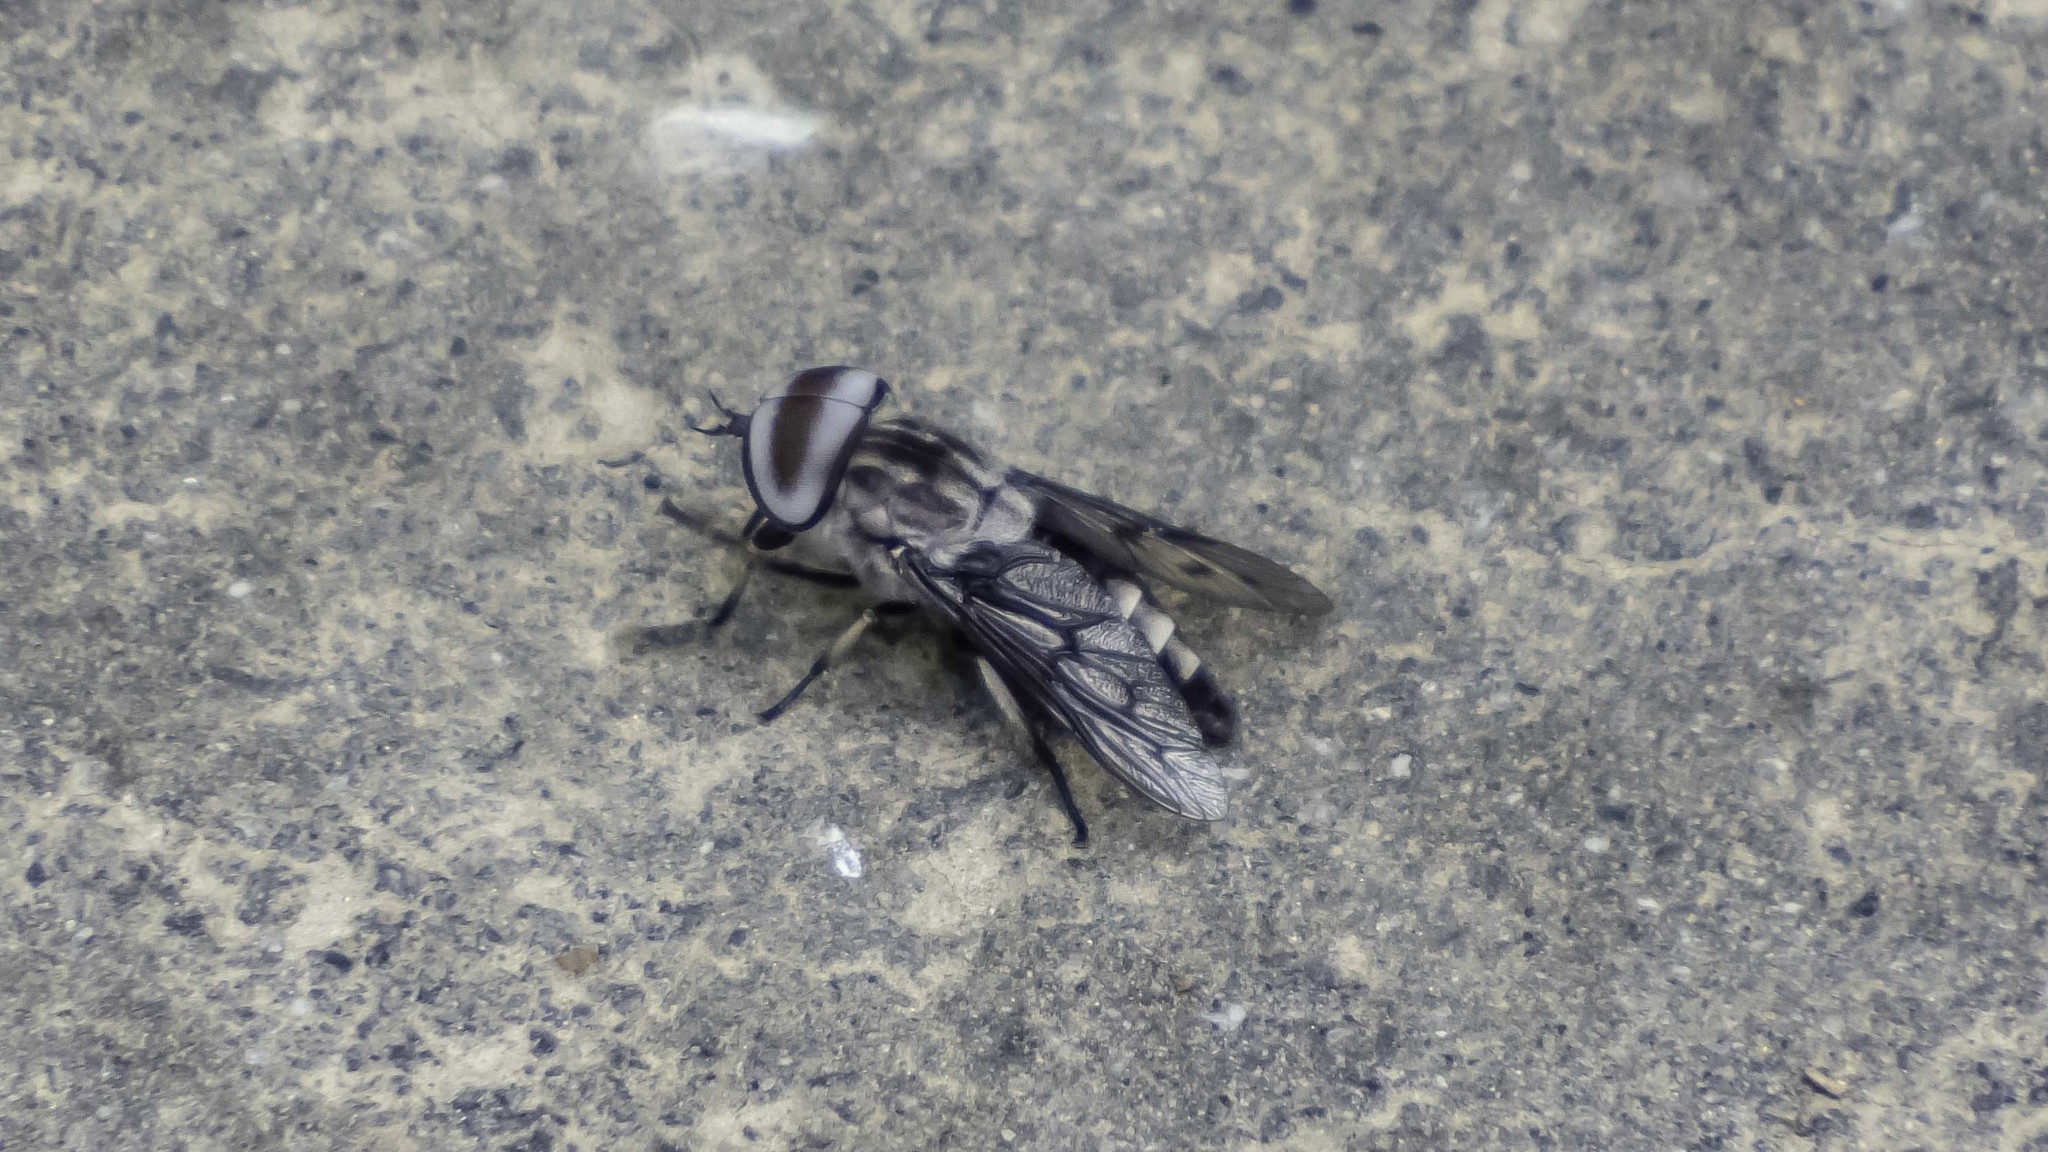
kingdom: Animalia
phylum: Arthropoda
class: Insecta
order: Diptera
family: Tabanidae
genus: Tabanus
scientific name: Tabanus trimaculatus
